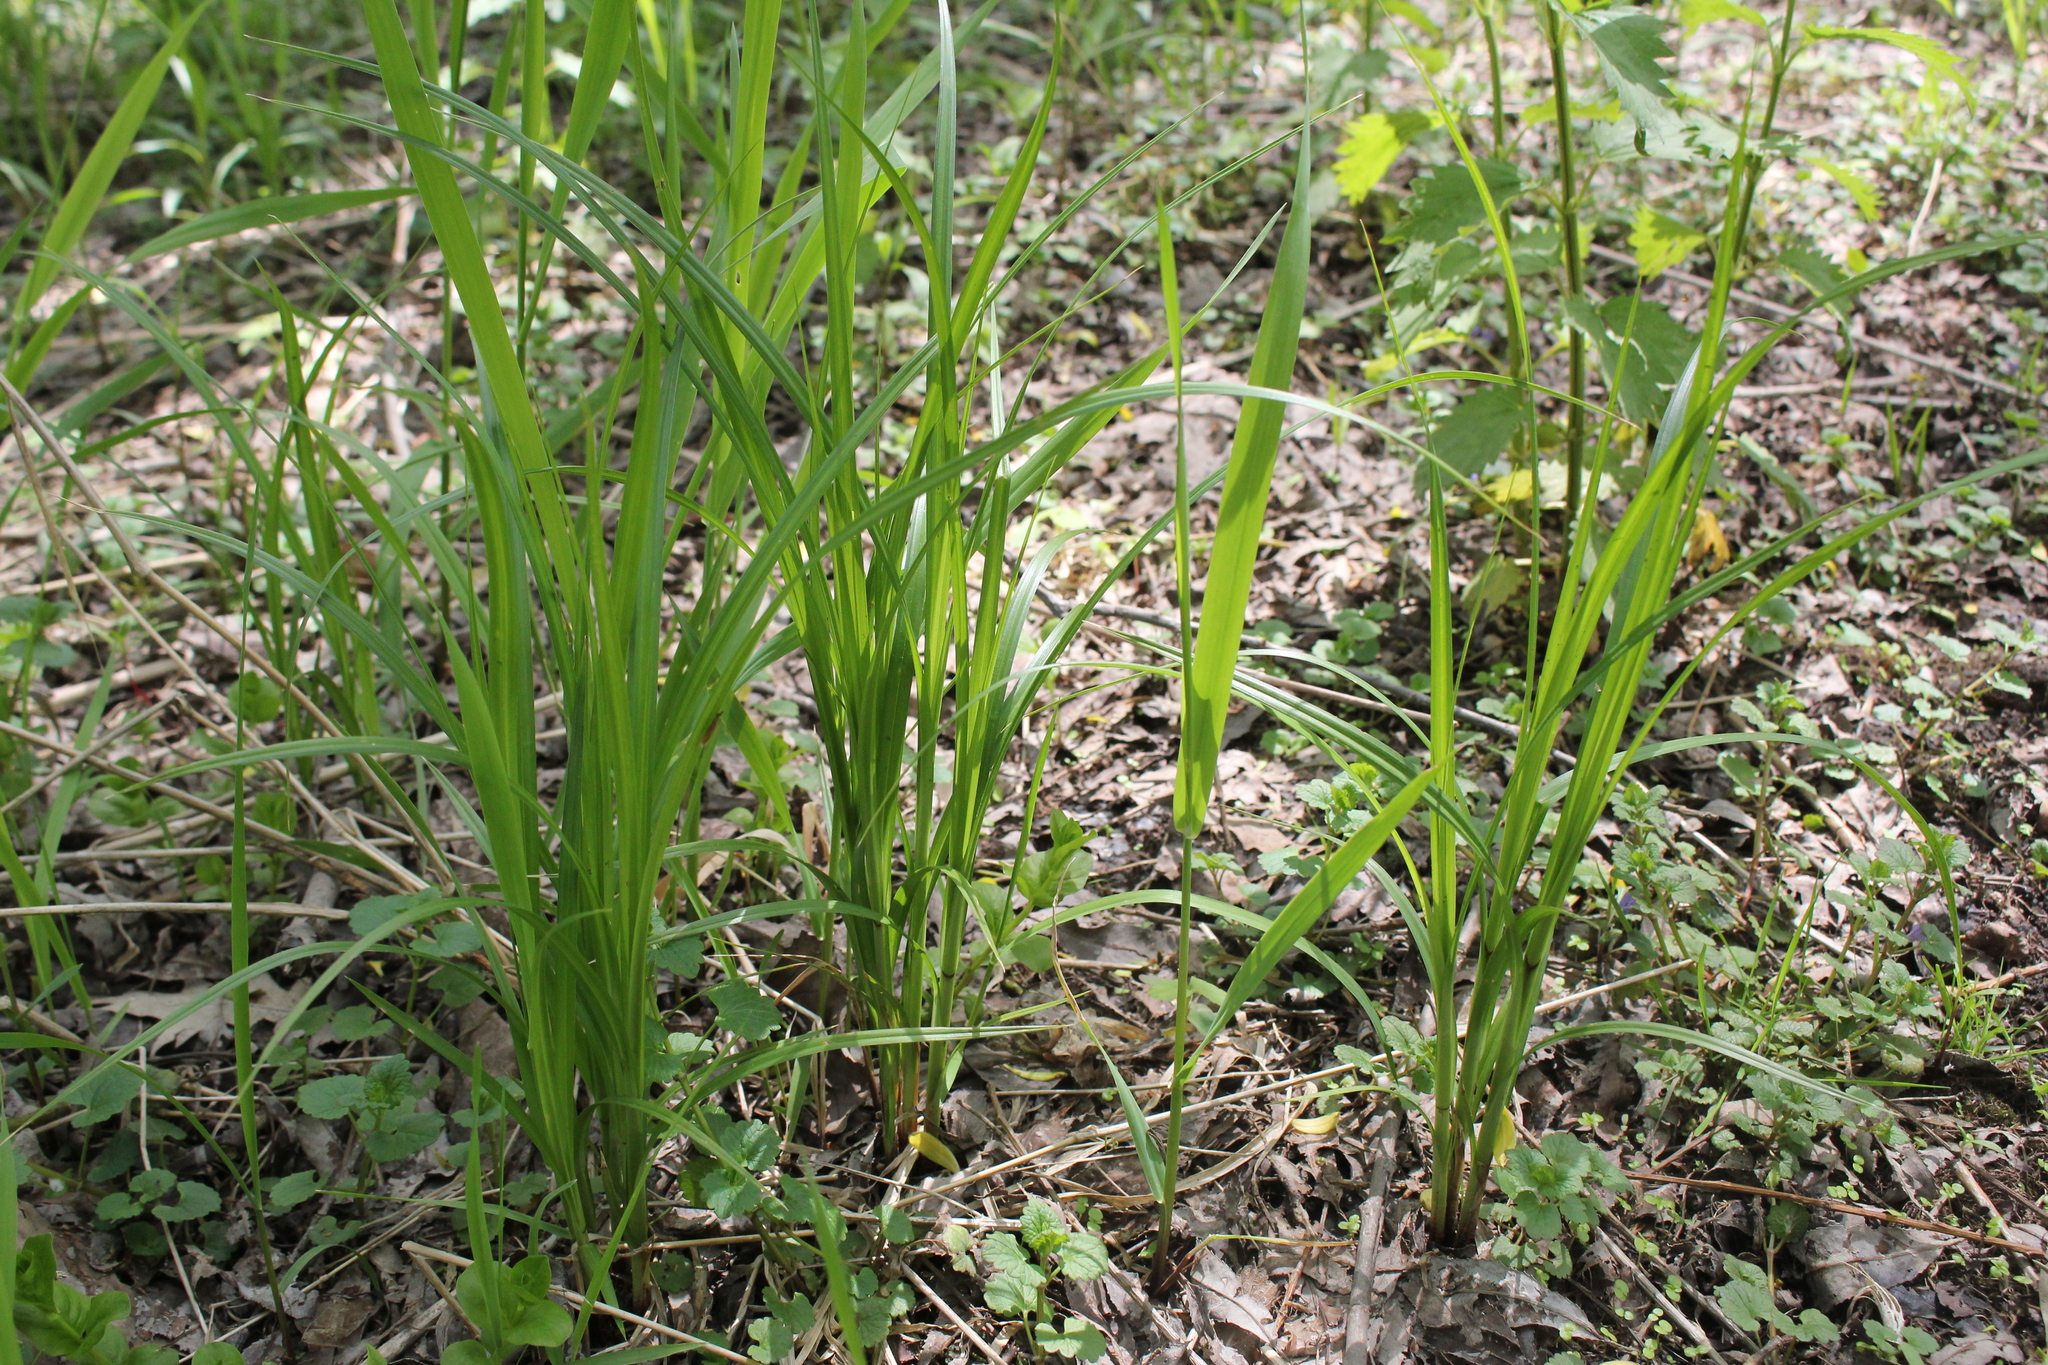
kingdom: Plantae
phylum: Tracheophyta
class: Liliopsida
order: Poales
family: Cyperaceae
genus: Carex
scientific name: Carex trichocarpa
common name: Hairy-fruited lake sedge
